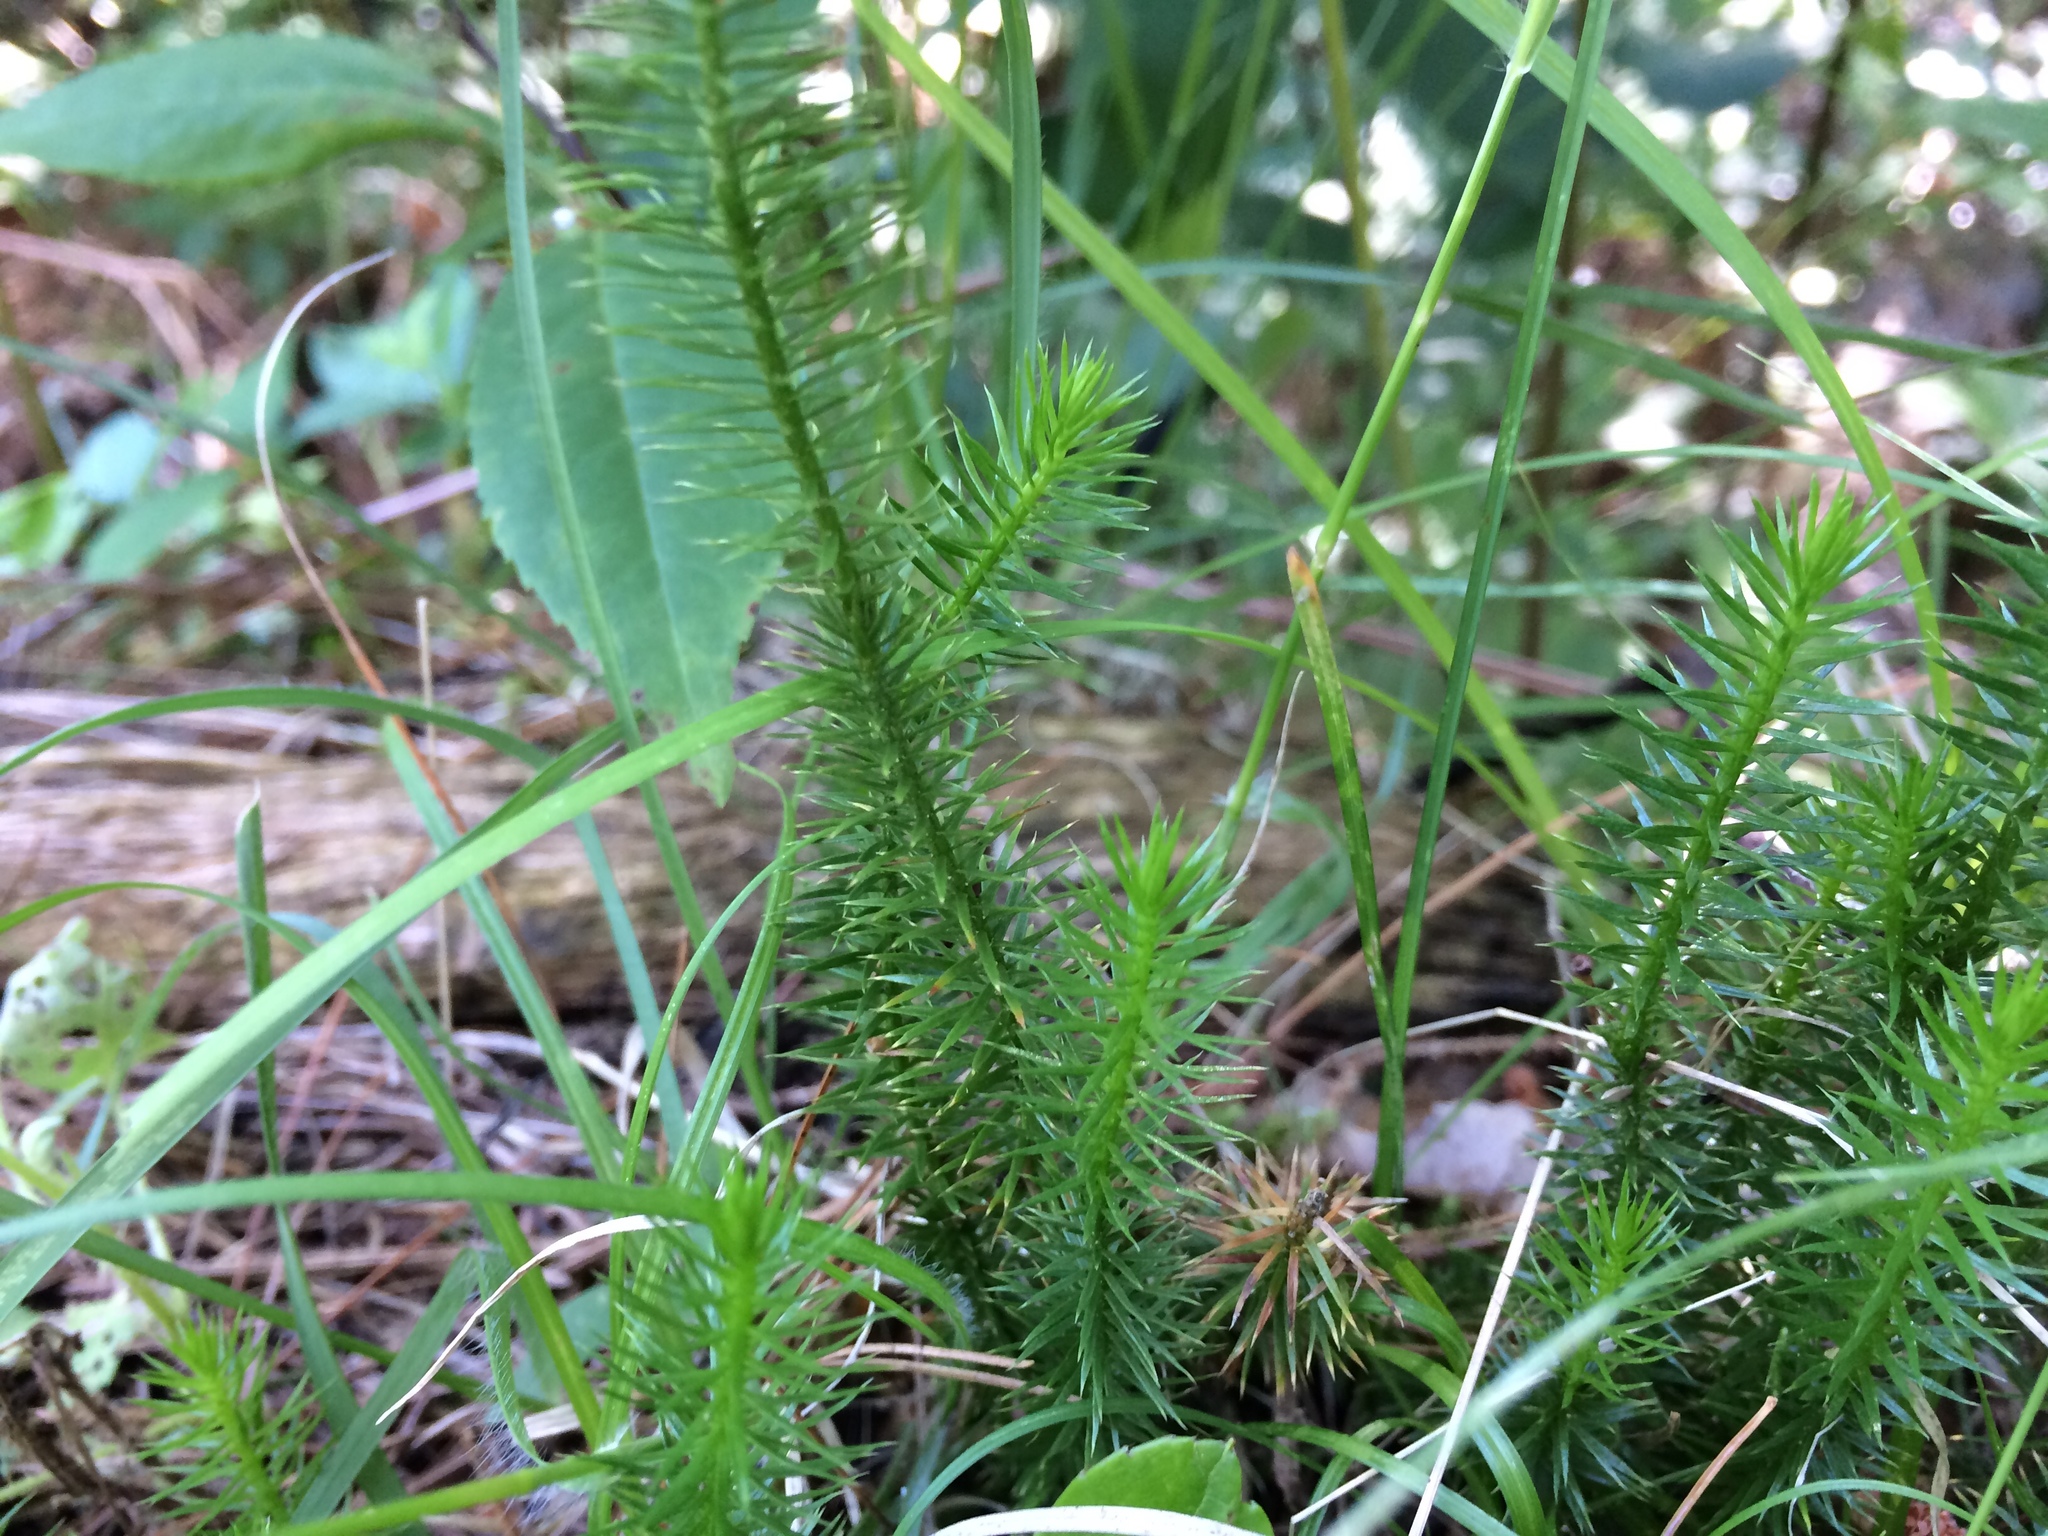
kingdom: Plantae
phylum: Tracheophyta
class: Lycopodiopsida
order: Lycopodiales
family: Lycopodiaceae
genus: Spinulum
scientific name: Spinulum annotinum
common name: Interrupted club-moss
